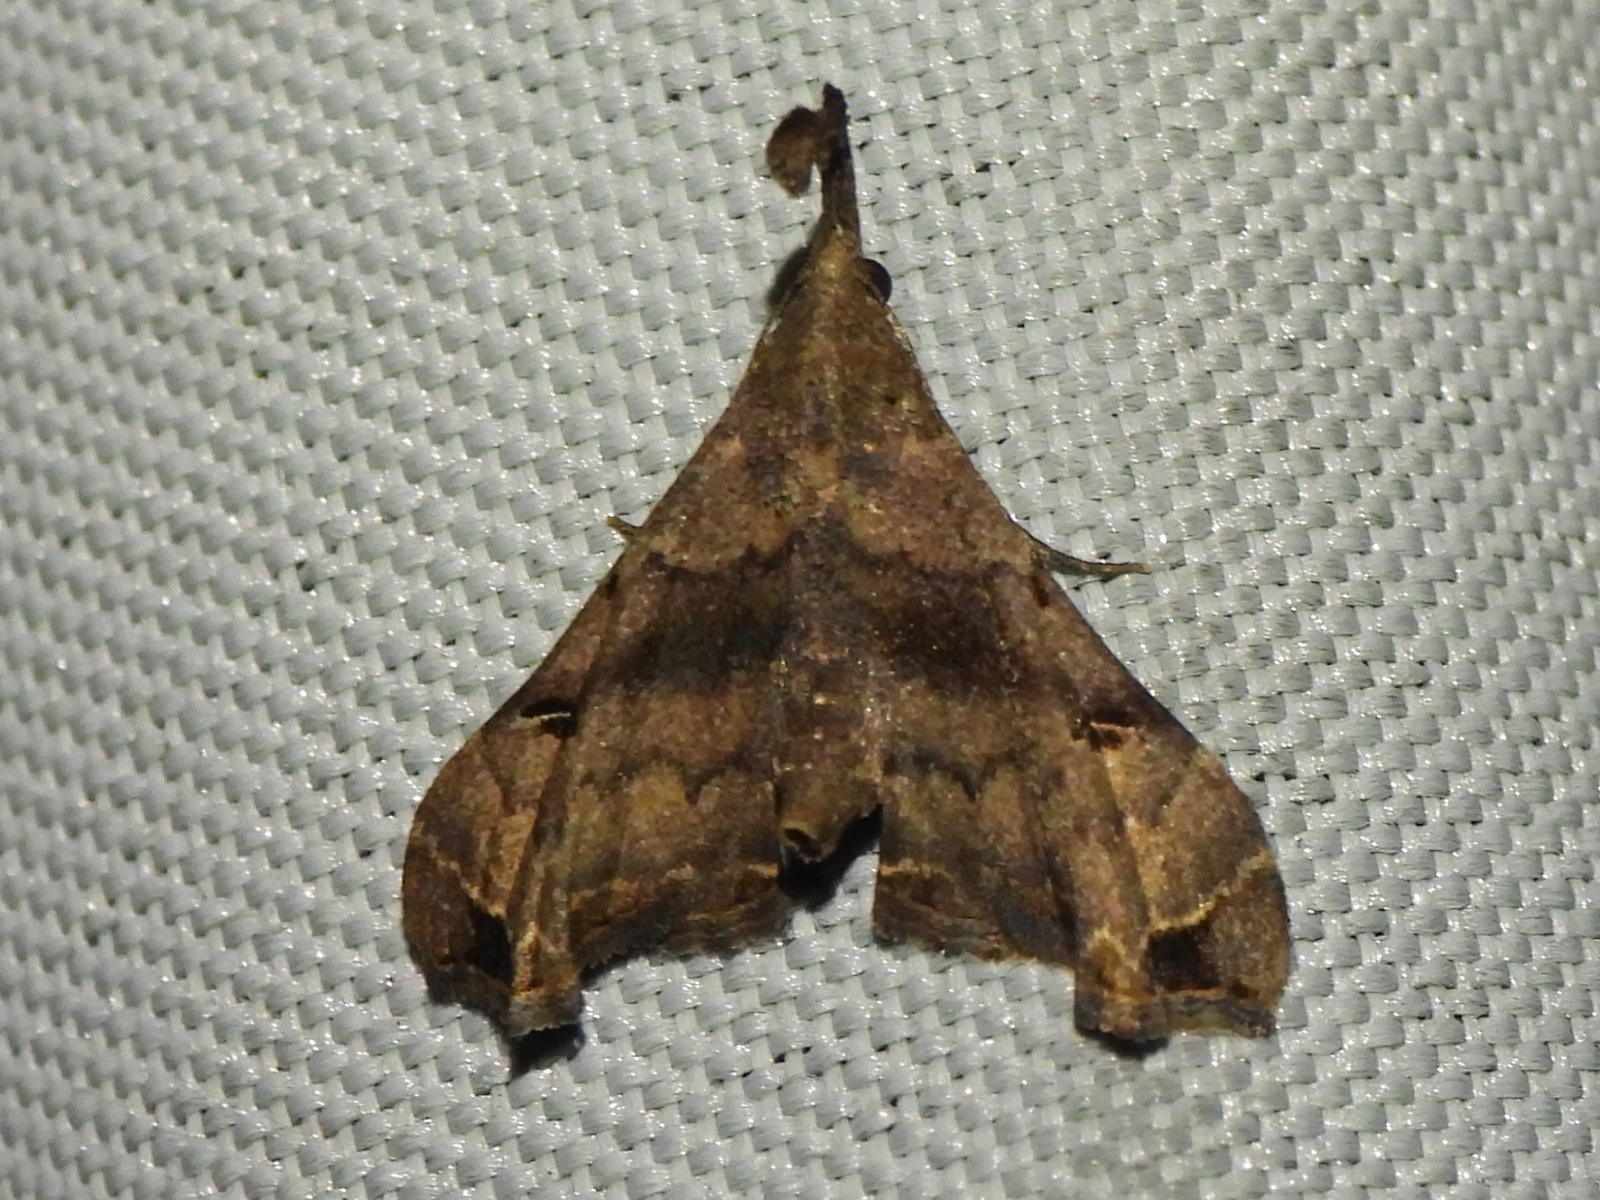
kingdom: Animalia
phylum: Arthropoda
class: Insecta
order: Lepidoptera
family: Erebidae
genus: Palthis
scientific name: Palthis asopialis
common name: Faint-spotted palthis moth
